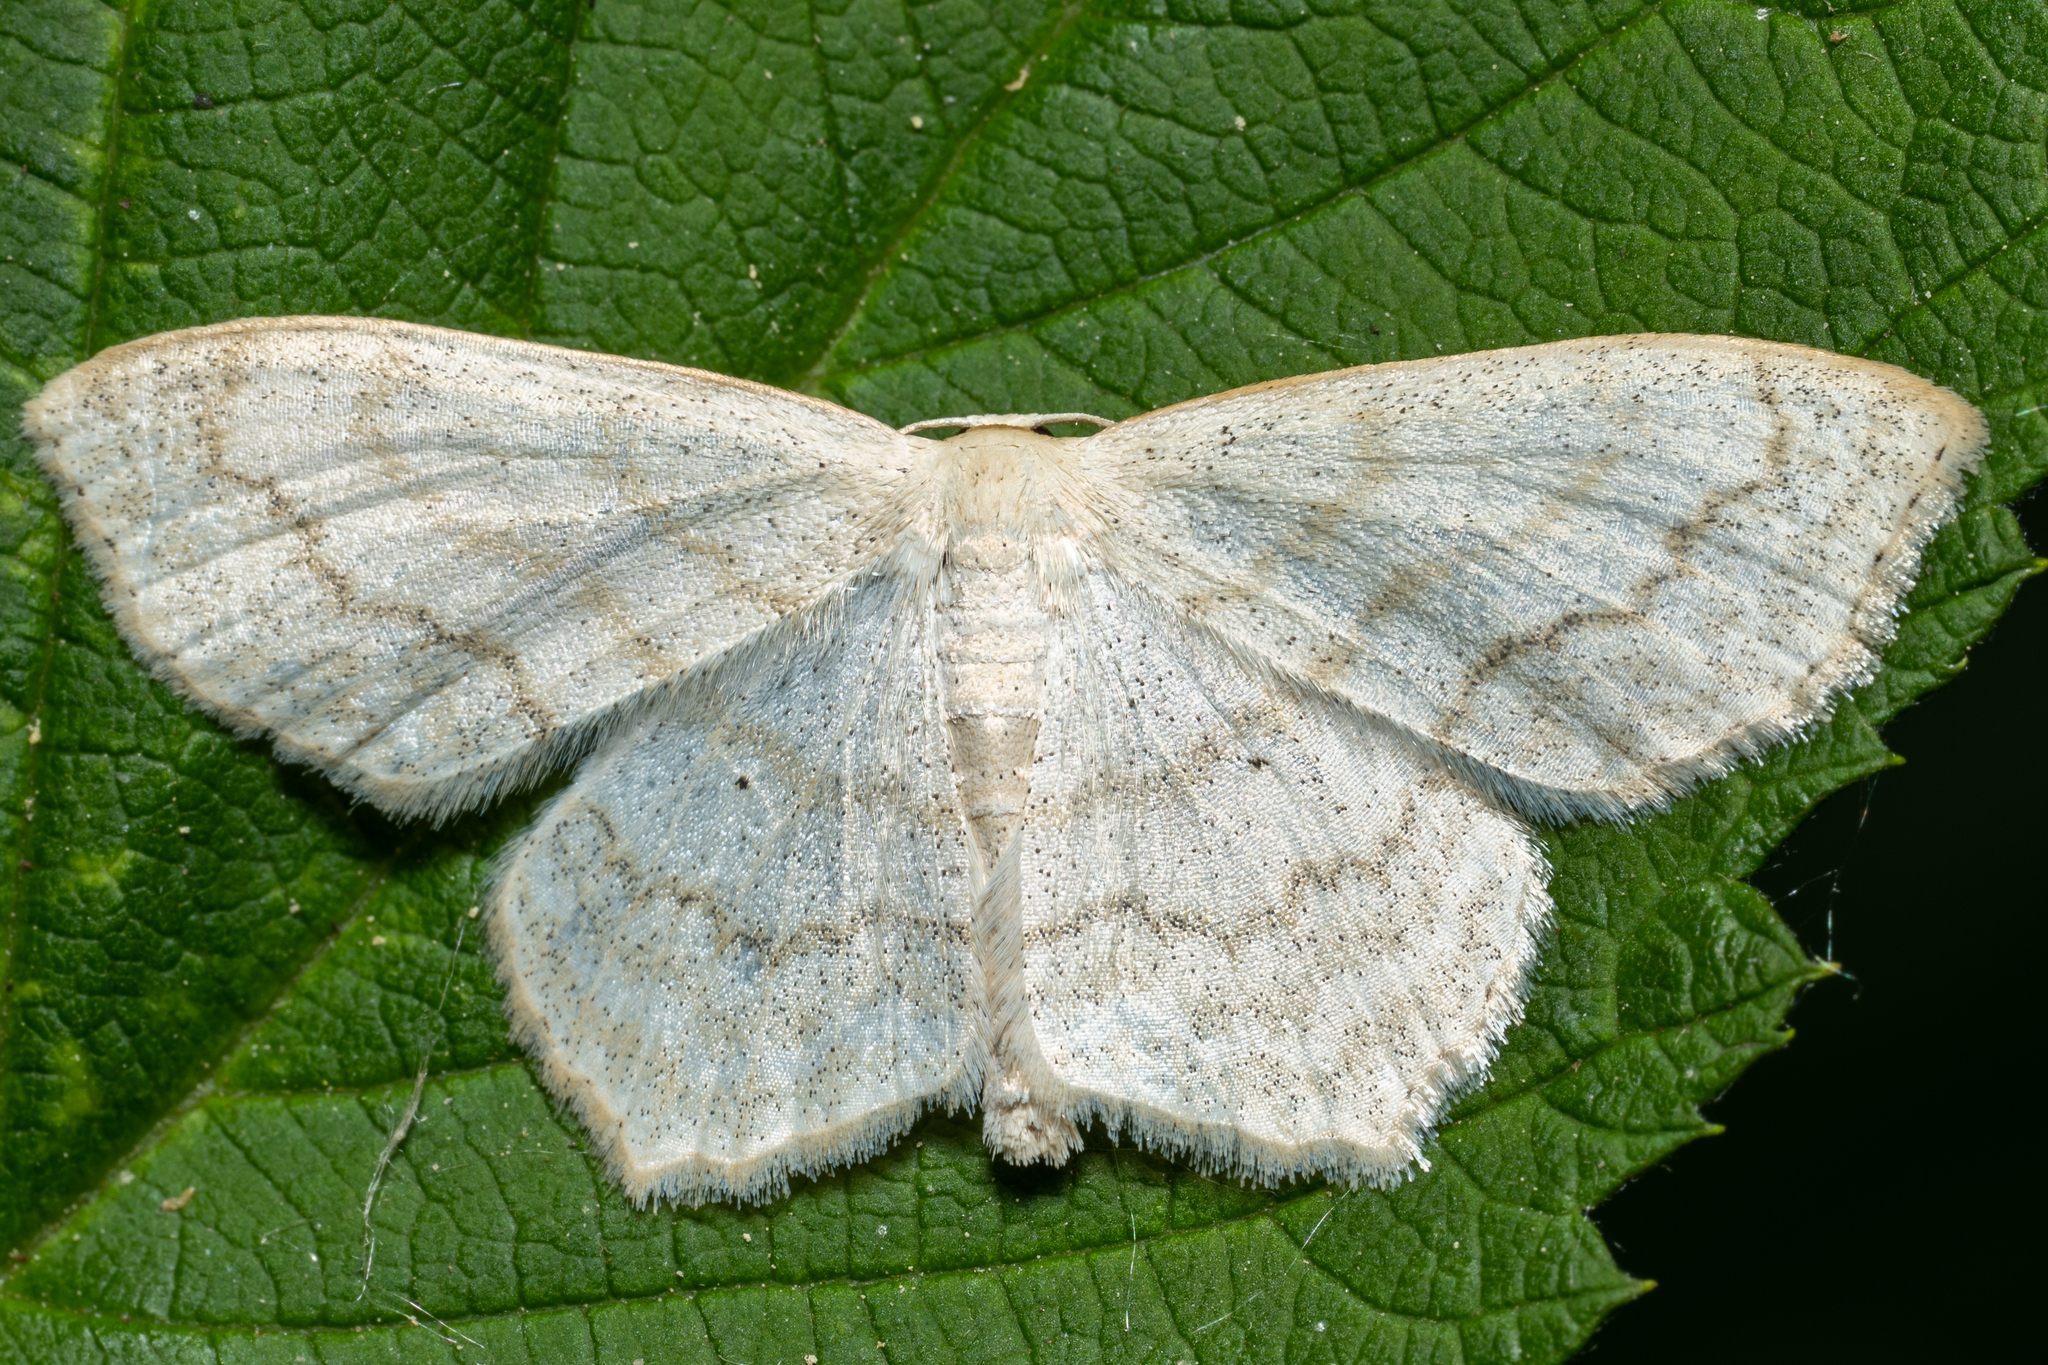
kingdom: Animalia
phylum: Arthropoda
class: Insecta
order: Lepidoptera
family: Geometridae
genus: Scopula
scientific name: Scopula limboundata
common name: Large lace border
